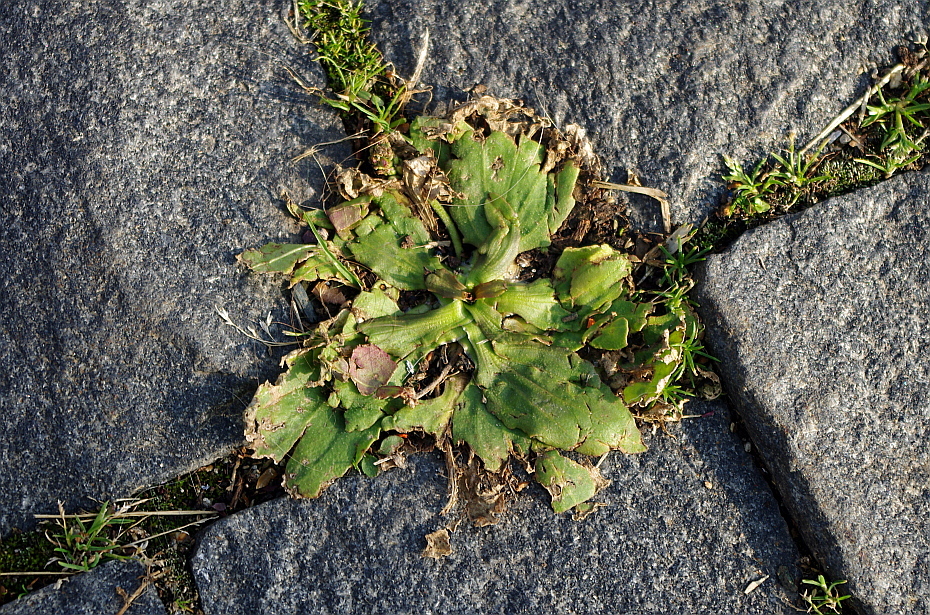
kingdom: Plantae
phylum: Tracheophyta
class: Magnoliopsida
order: Lamiales
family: Plantaginaceae
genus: Plantago
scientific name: Plantago major
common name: Common plantain
